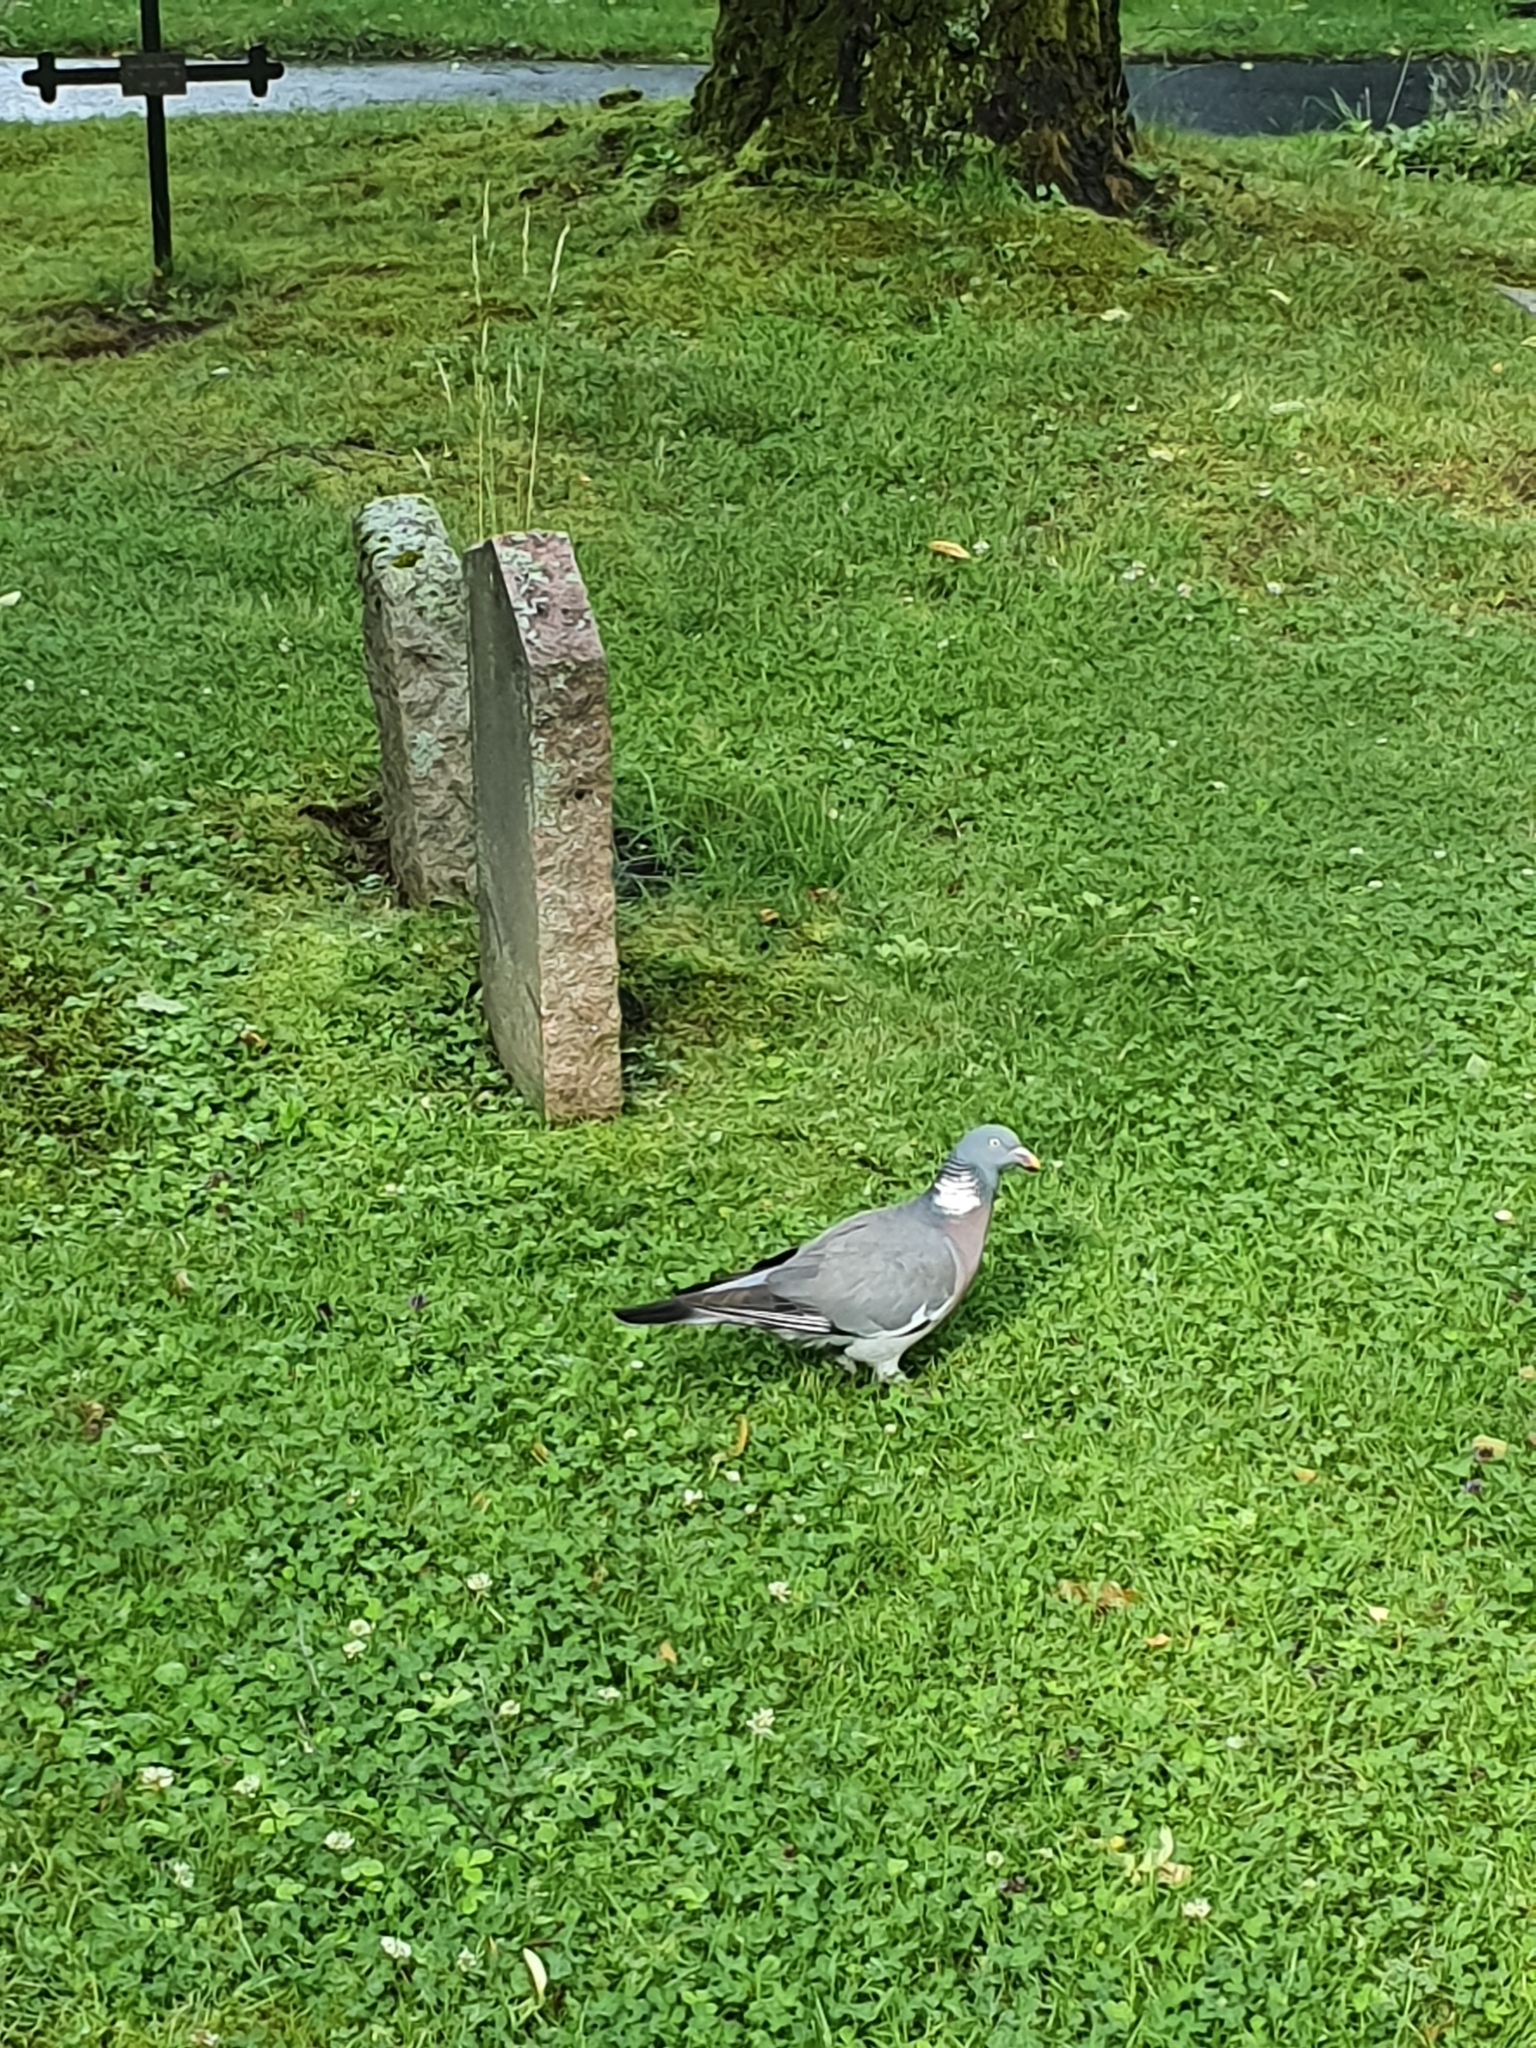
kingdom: Animalia
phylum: Chordata
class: Aves
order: Columbiformes
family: Columbidae
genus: Columba
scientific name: Columba palumbus
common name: Common wood pigeon
